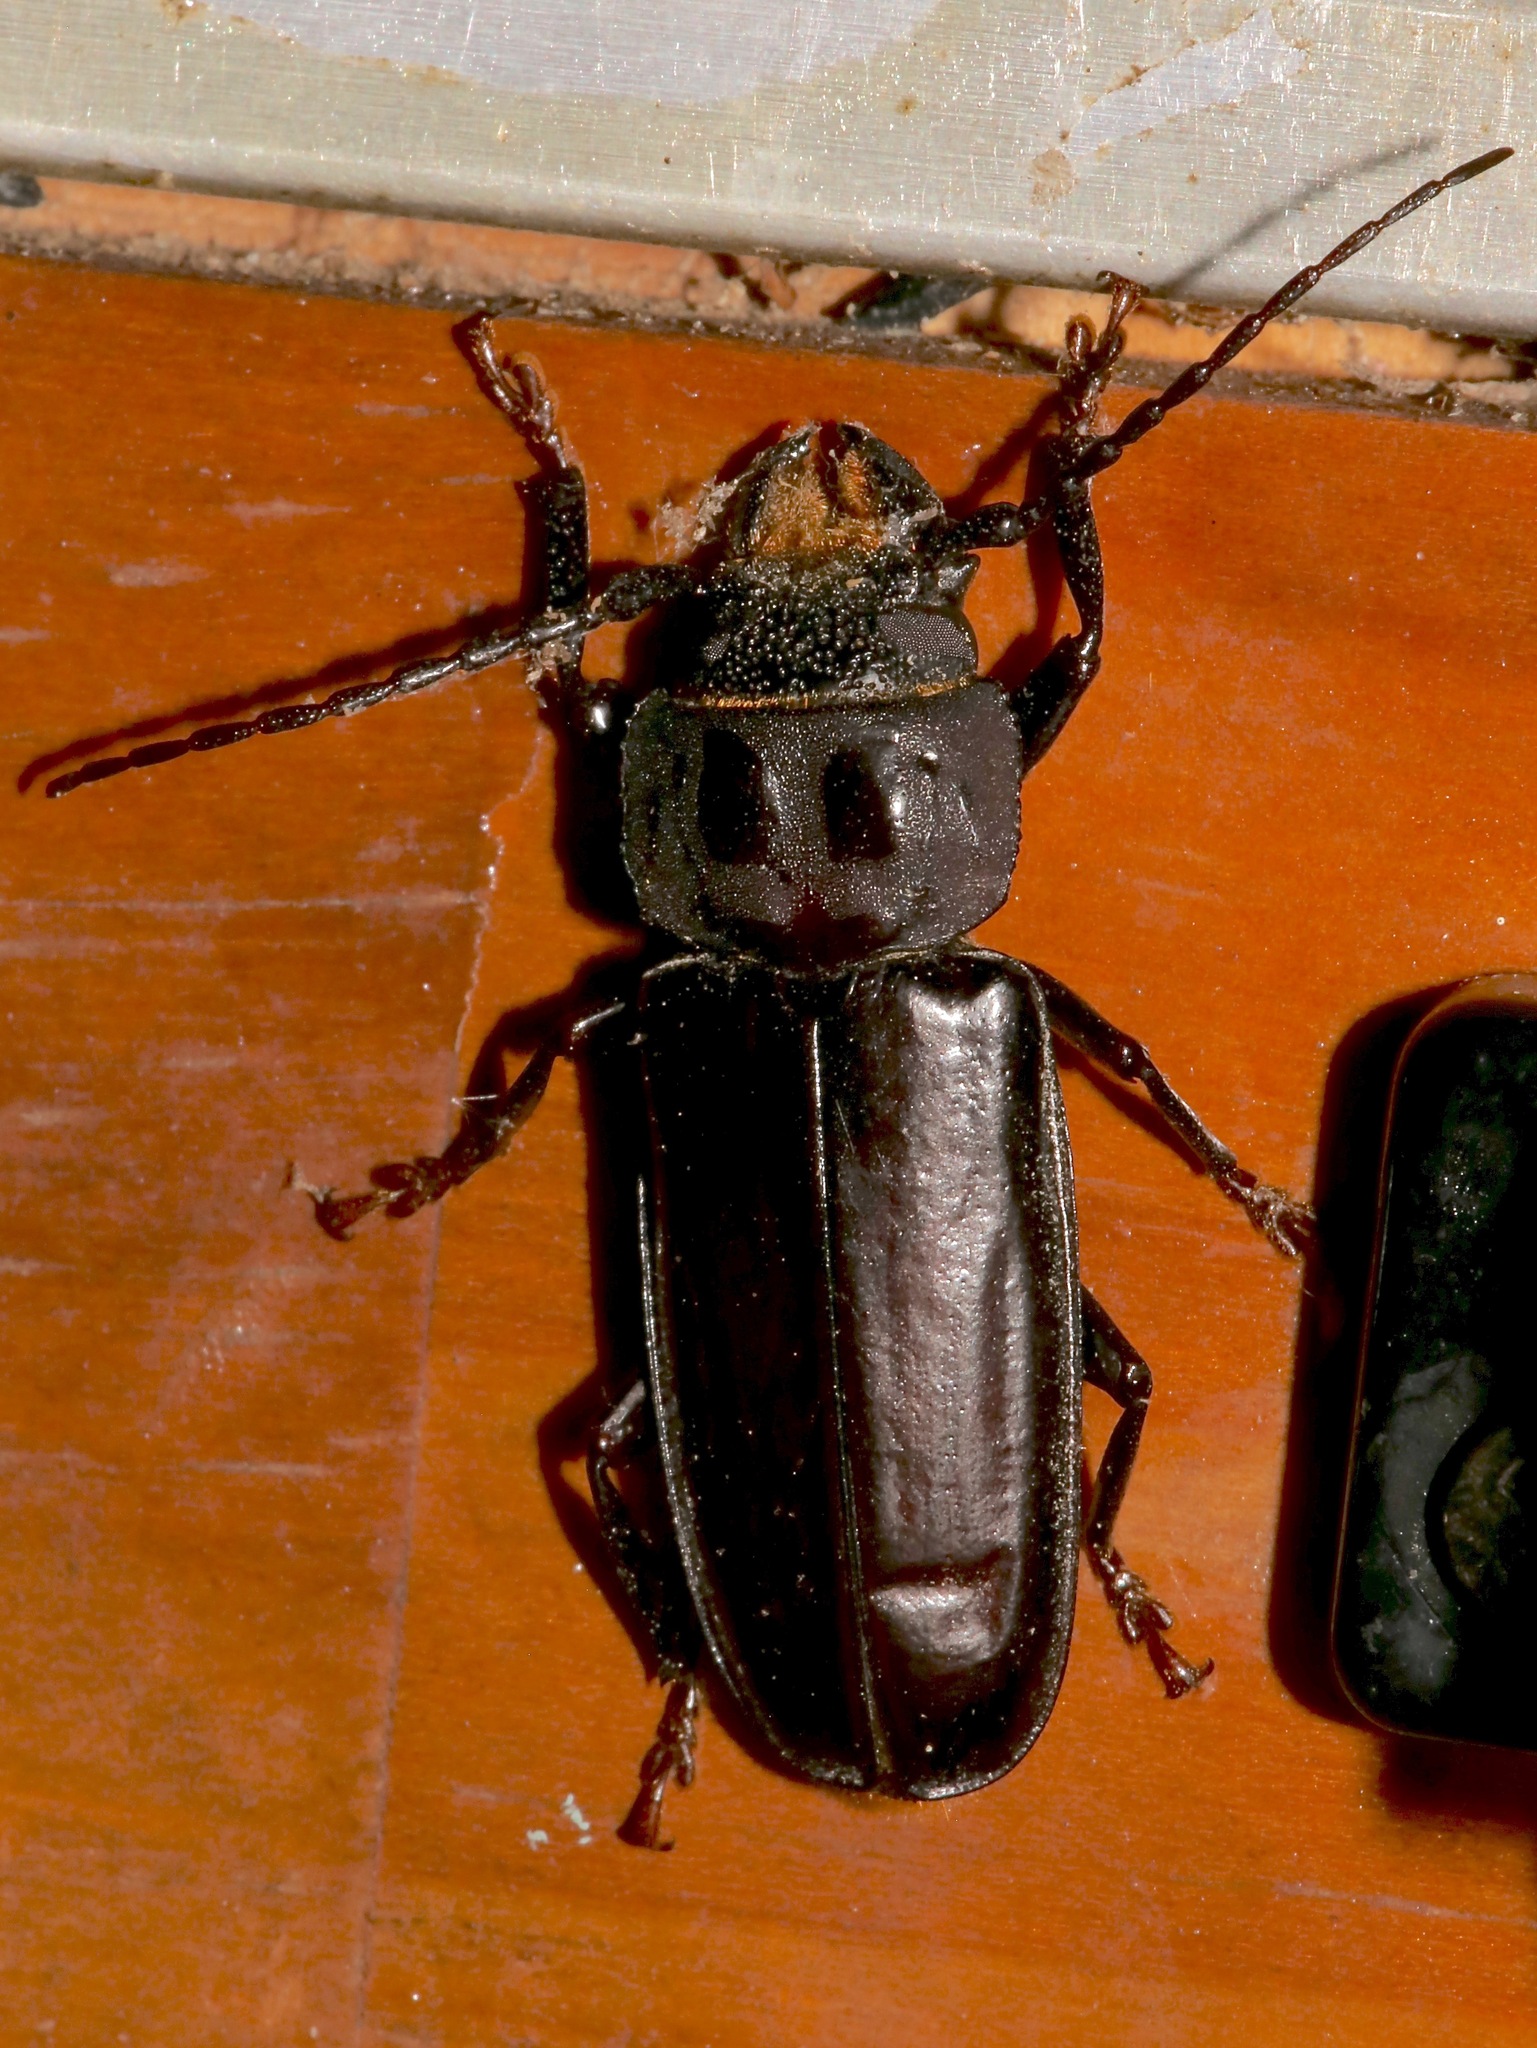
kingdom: Animalia
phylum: Arthropoda
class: Insecta
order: Coleoptera
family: Cerambycidae
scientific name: Cerambycidae
